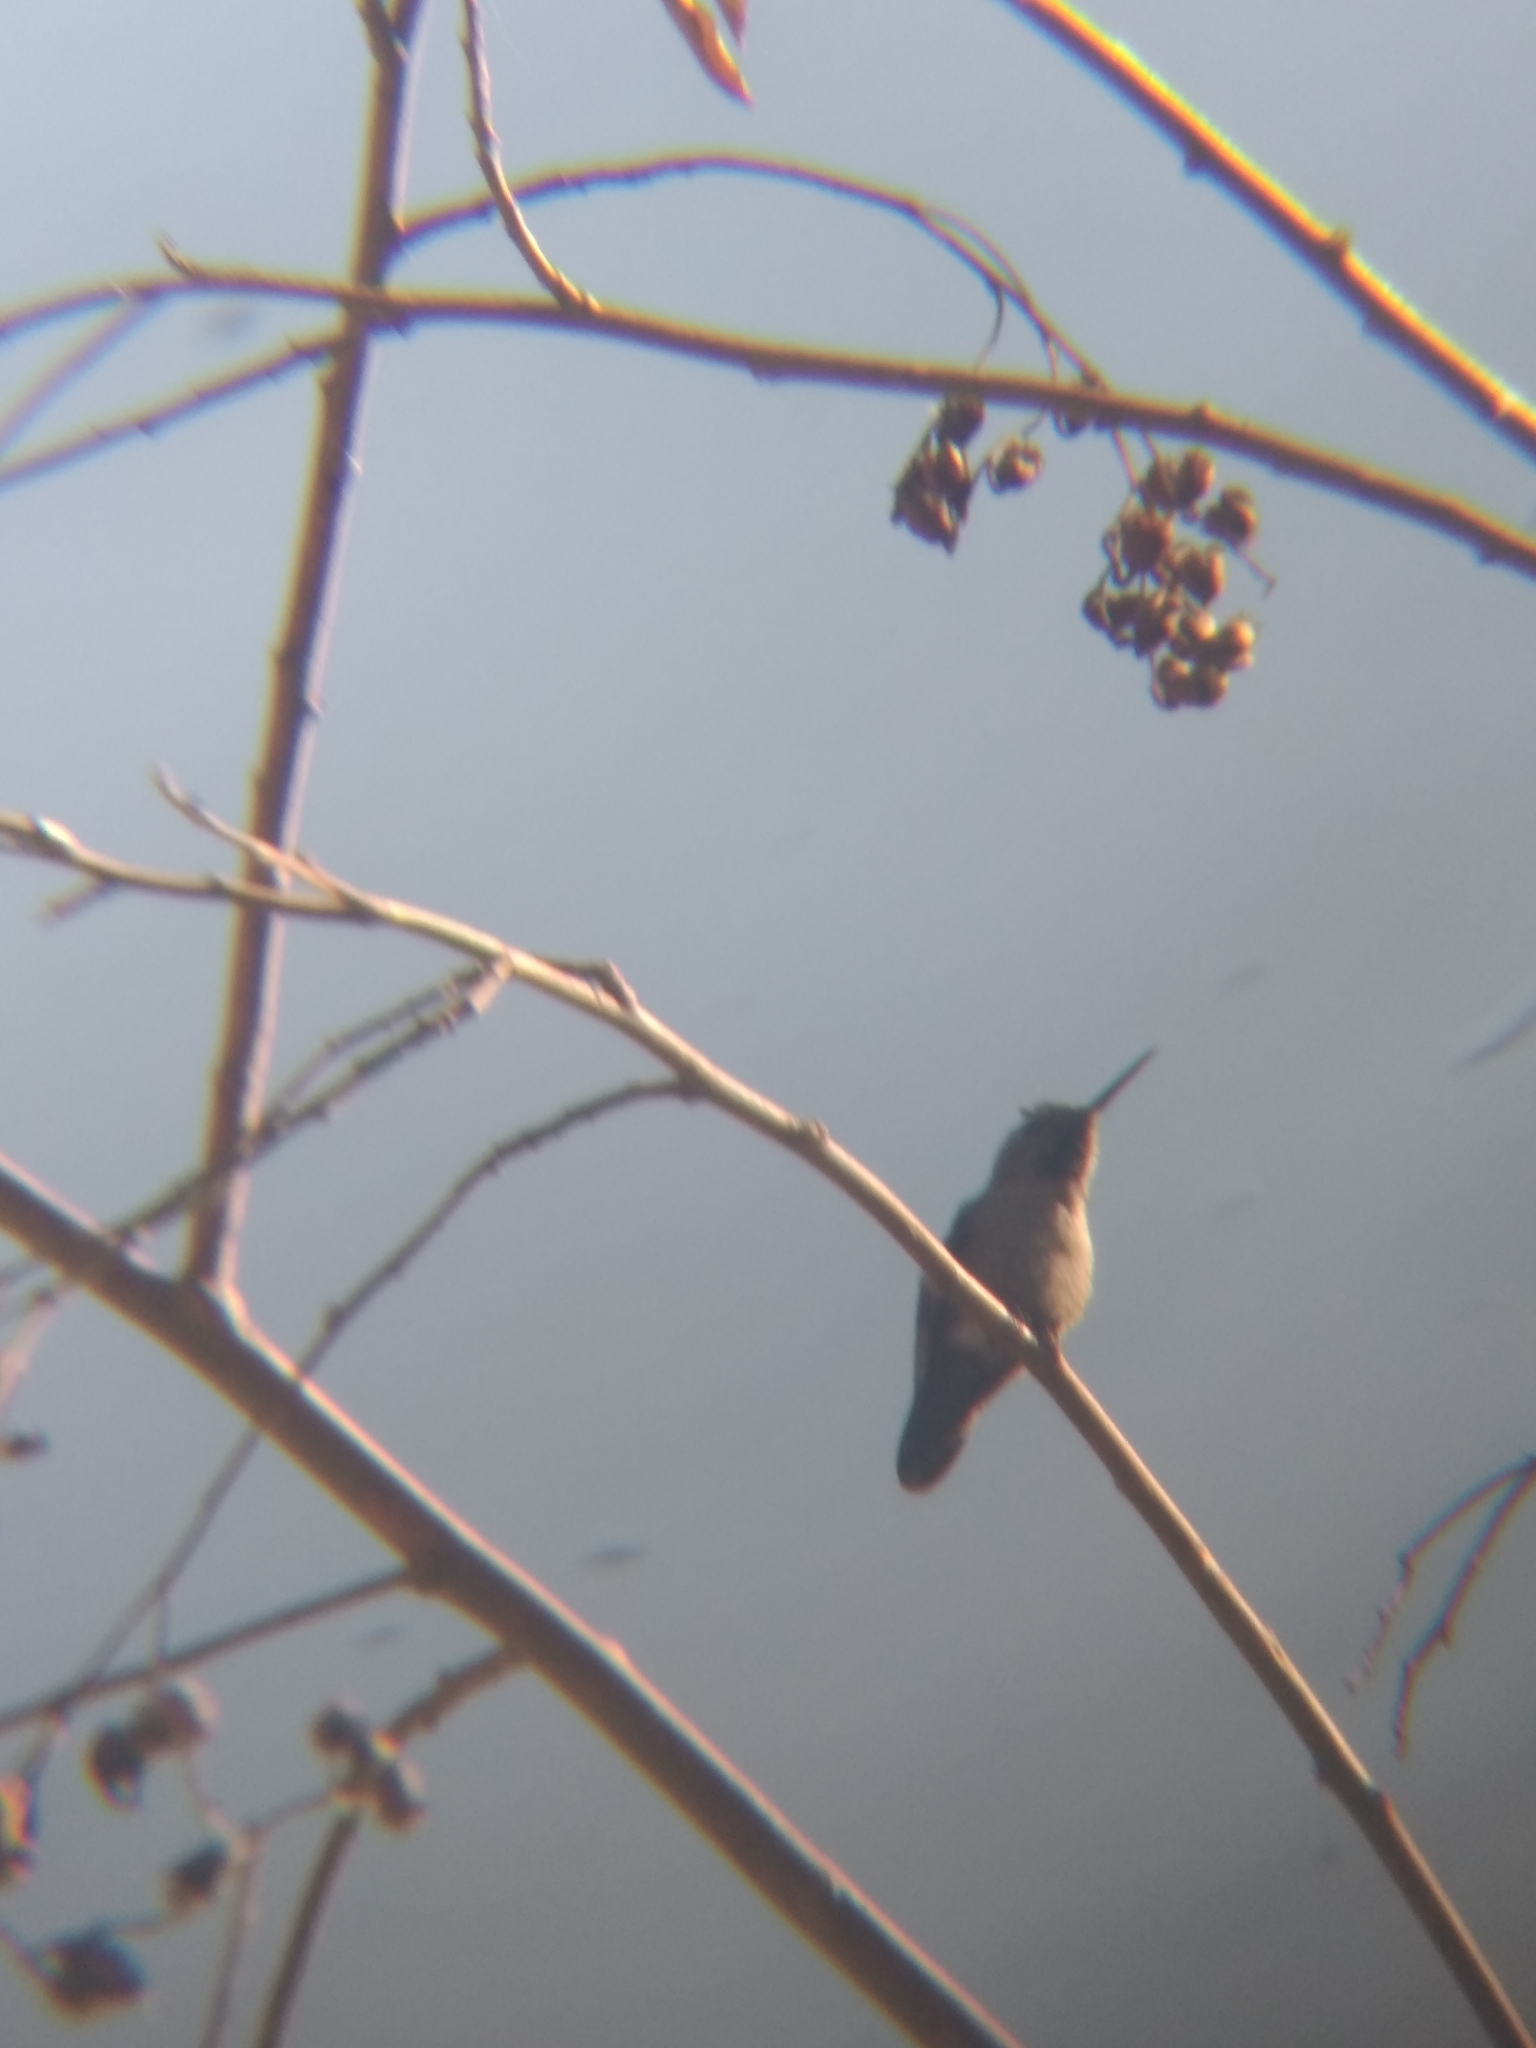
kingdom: Animalia
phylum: Chordata
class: Aves
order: Apodiformes
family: Trochilidae
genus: Calypte
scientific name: Calypte anna
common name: Anna's hummingbird
